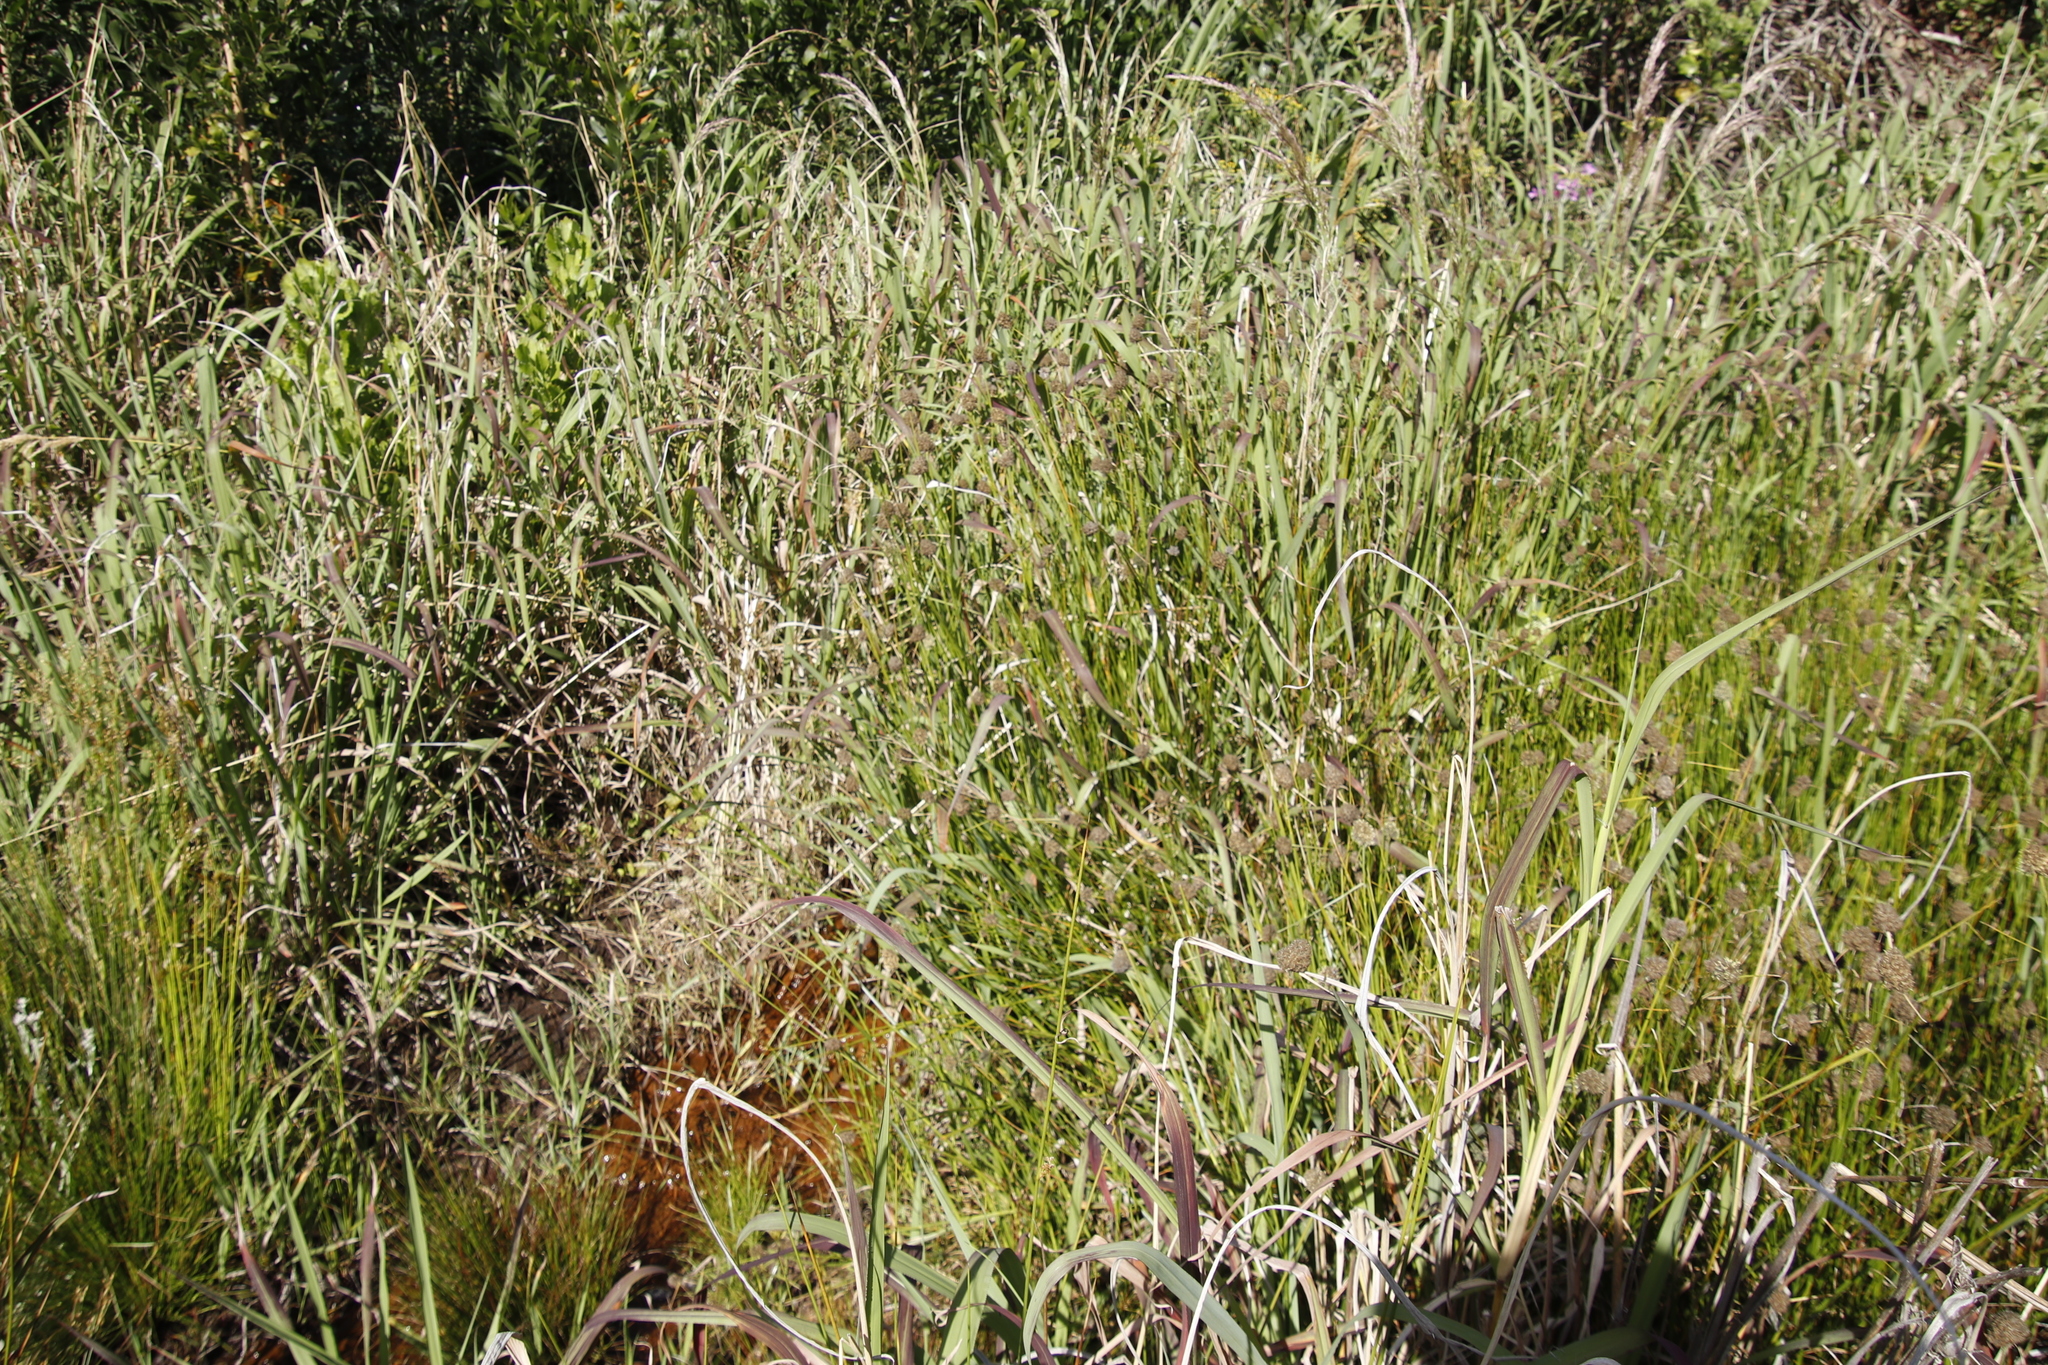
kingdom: Plantae
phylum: Tracheophyta
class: Liliopsida
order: Poales
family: Cyperaceae
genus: Fuirena
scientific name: Fuirena hirsuta
